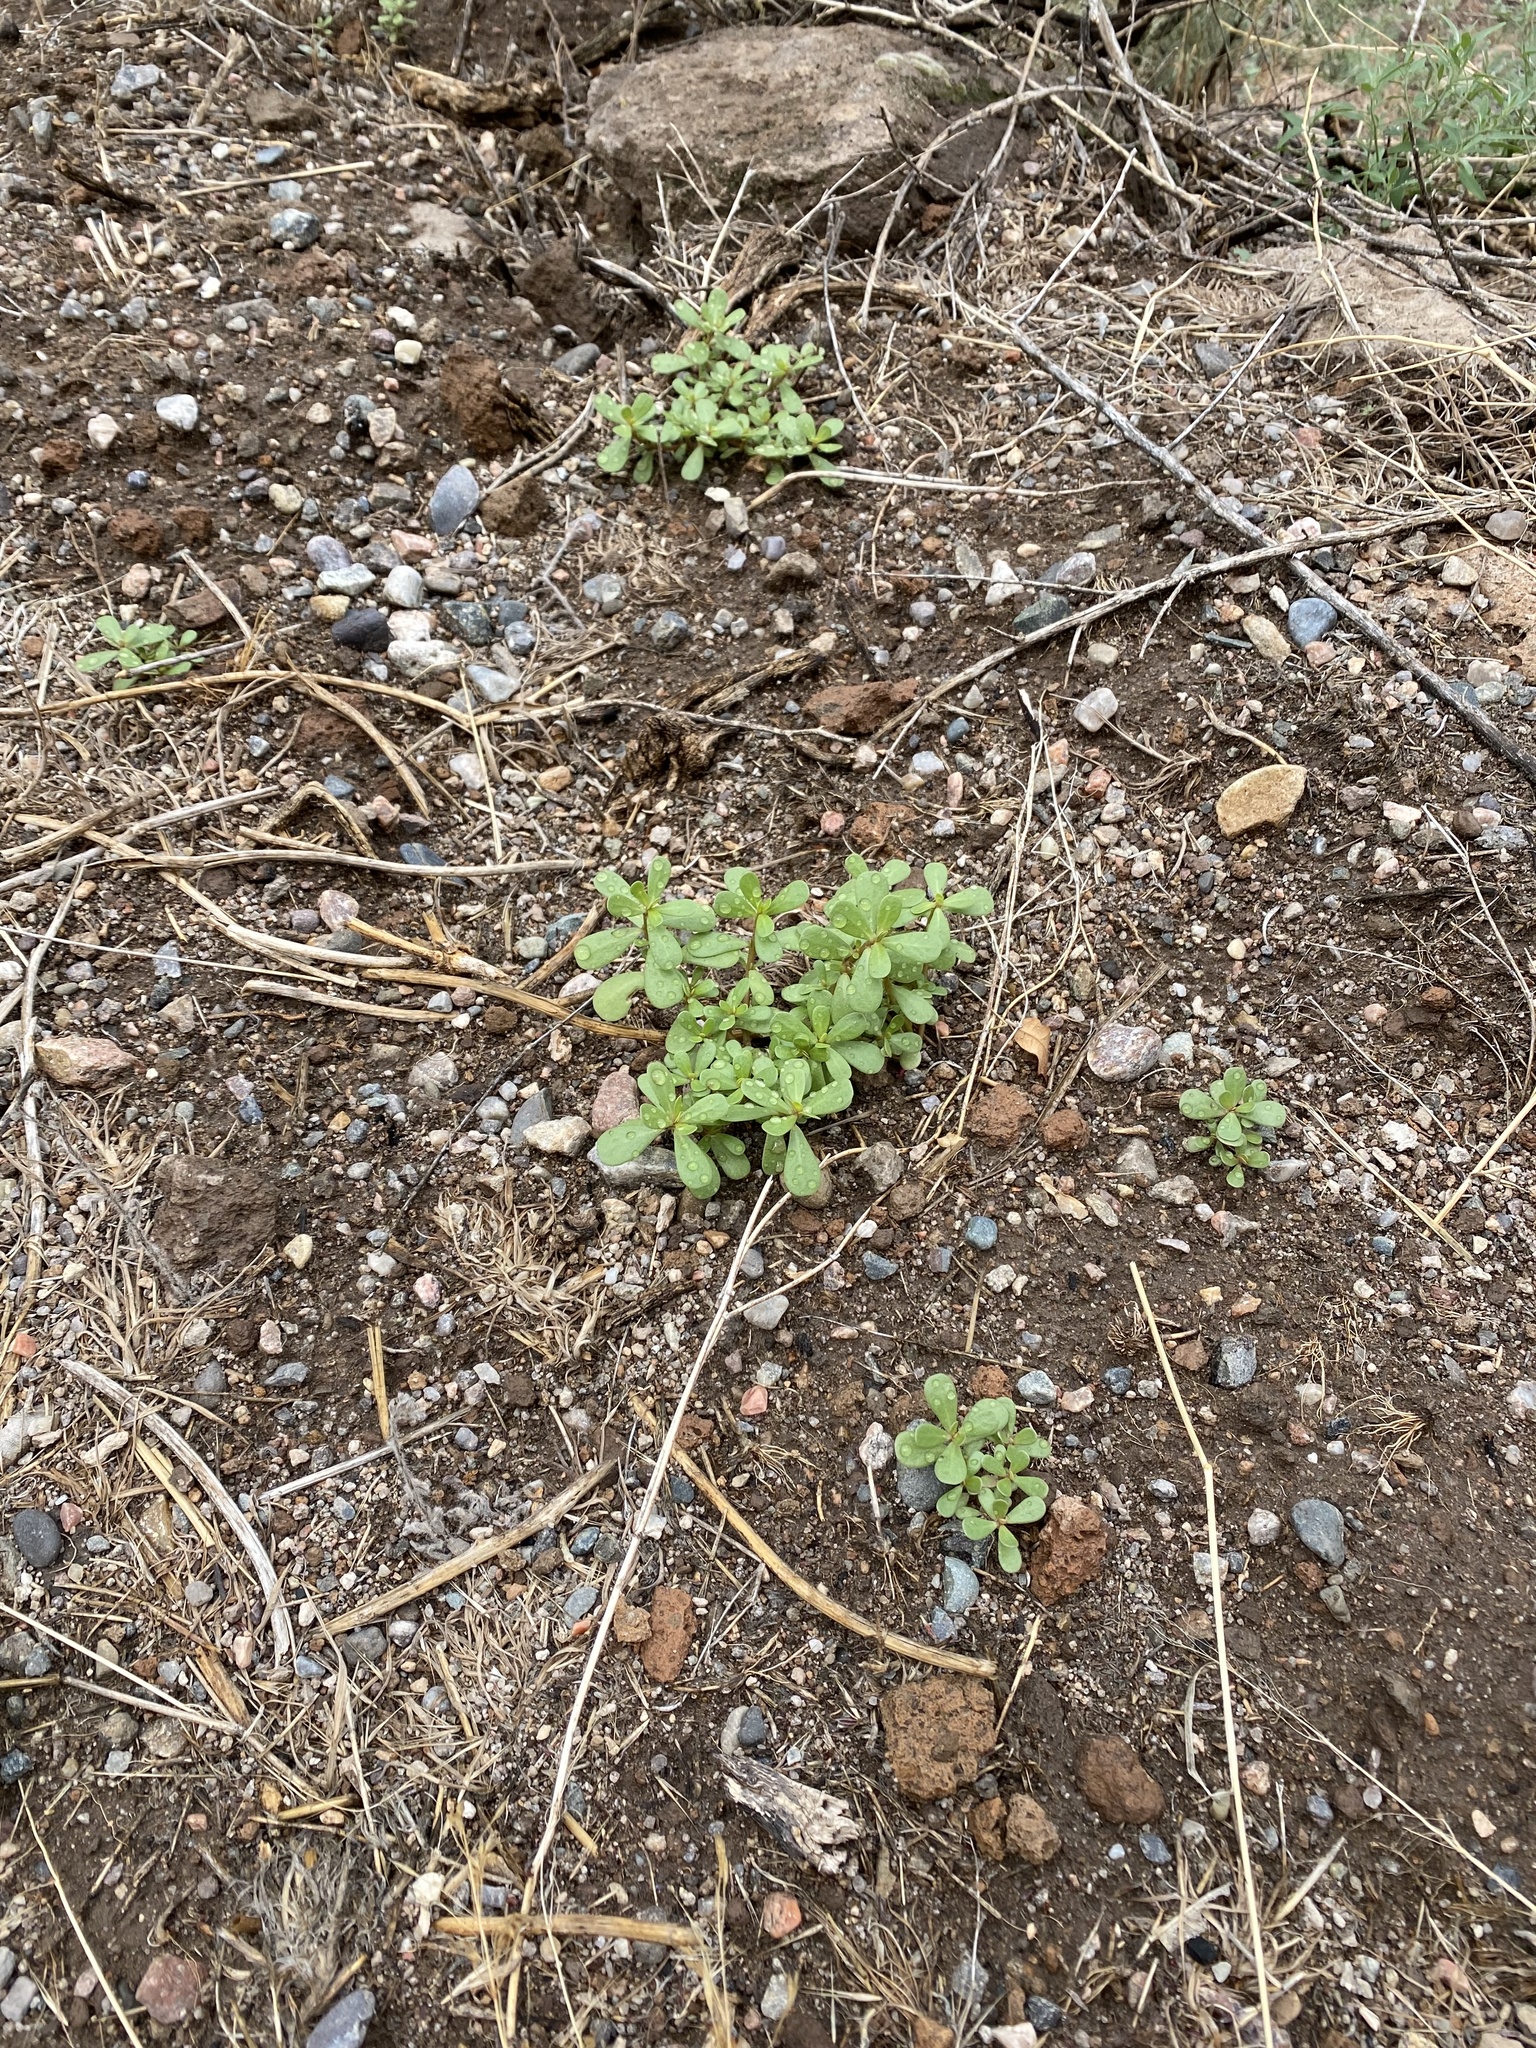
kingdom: Plantae
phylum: Tracheophyta
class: Magnoliopsida
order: Caryophyllales
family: Portulacaceae
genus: Portulaca
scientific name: Portulaca oleracea
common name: Common purslane
